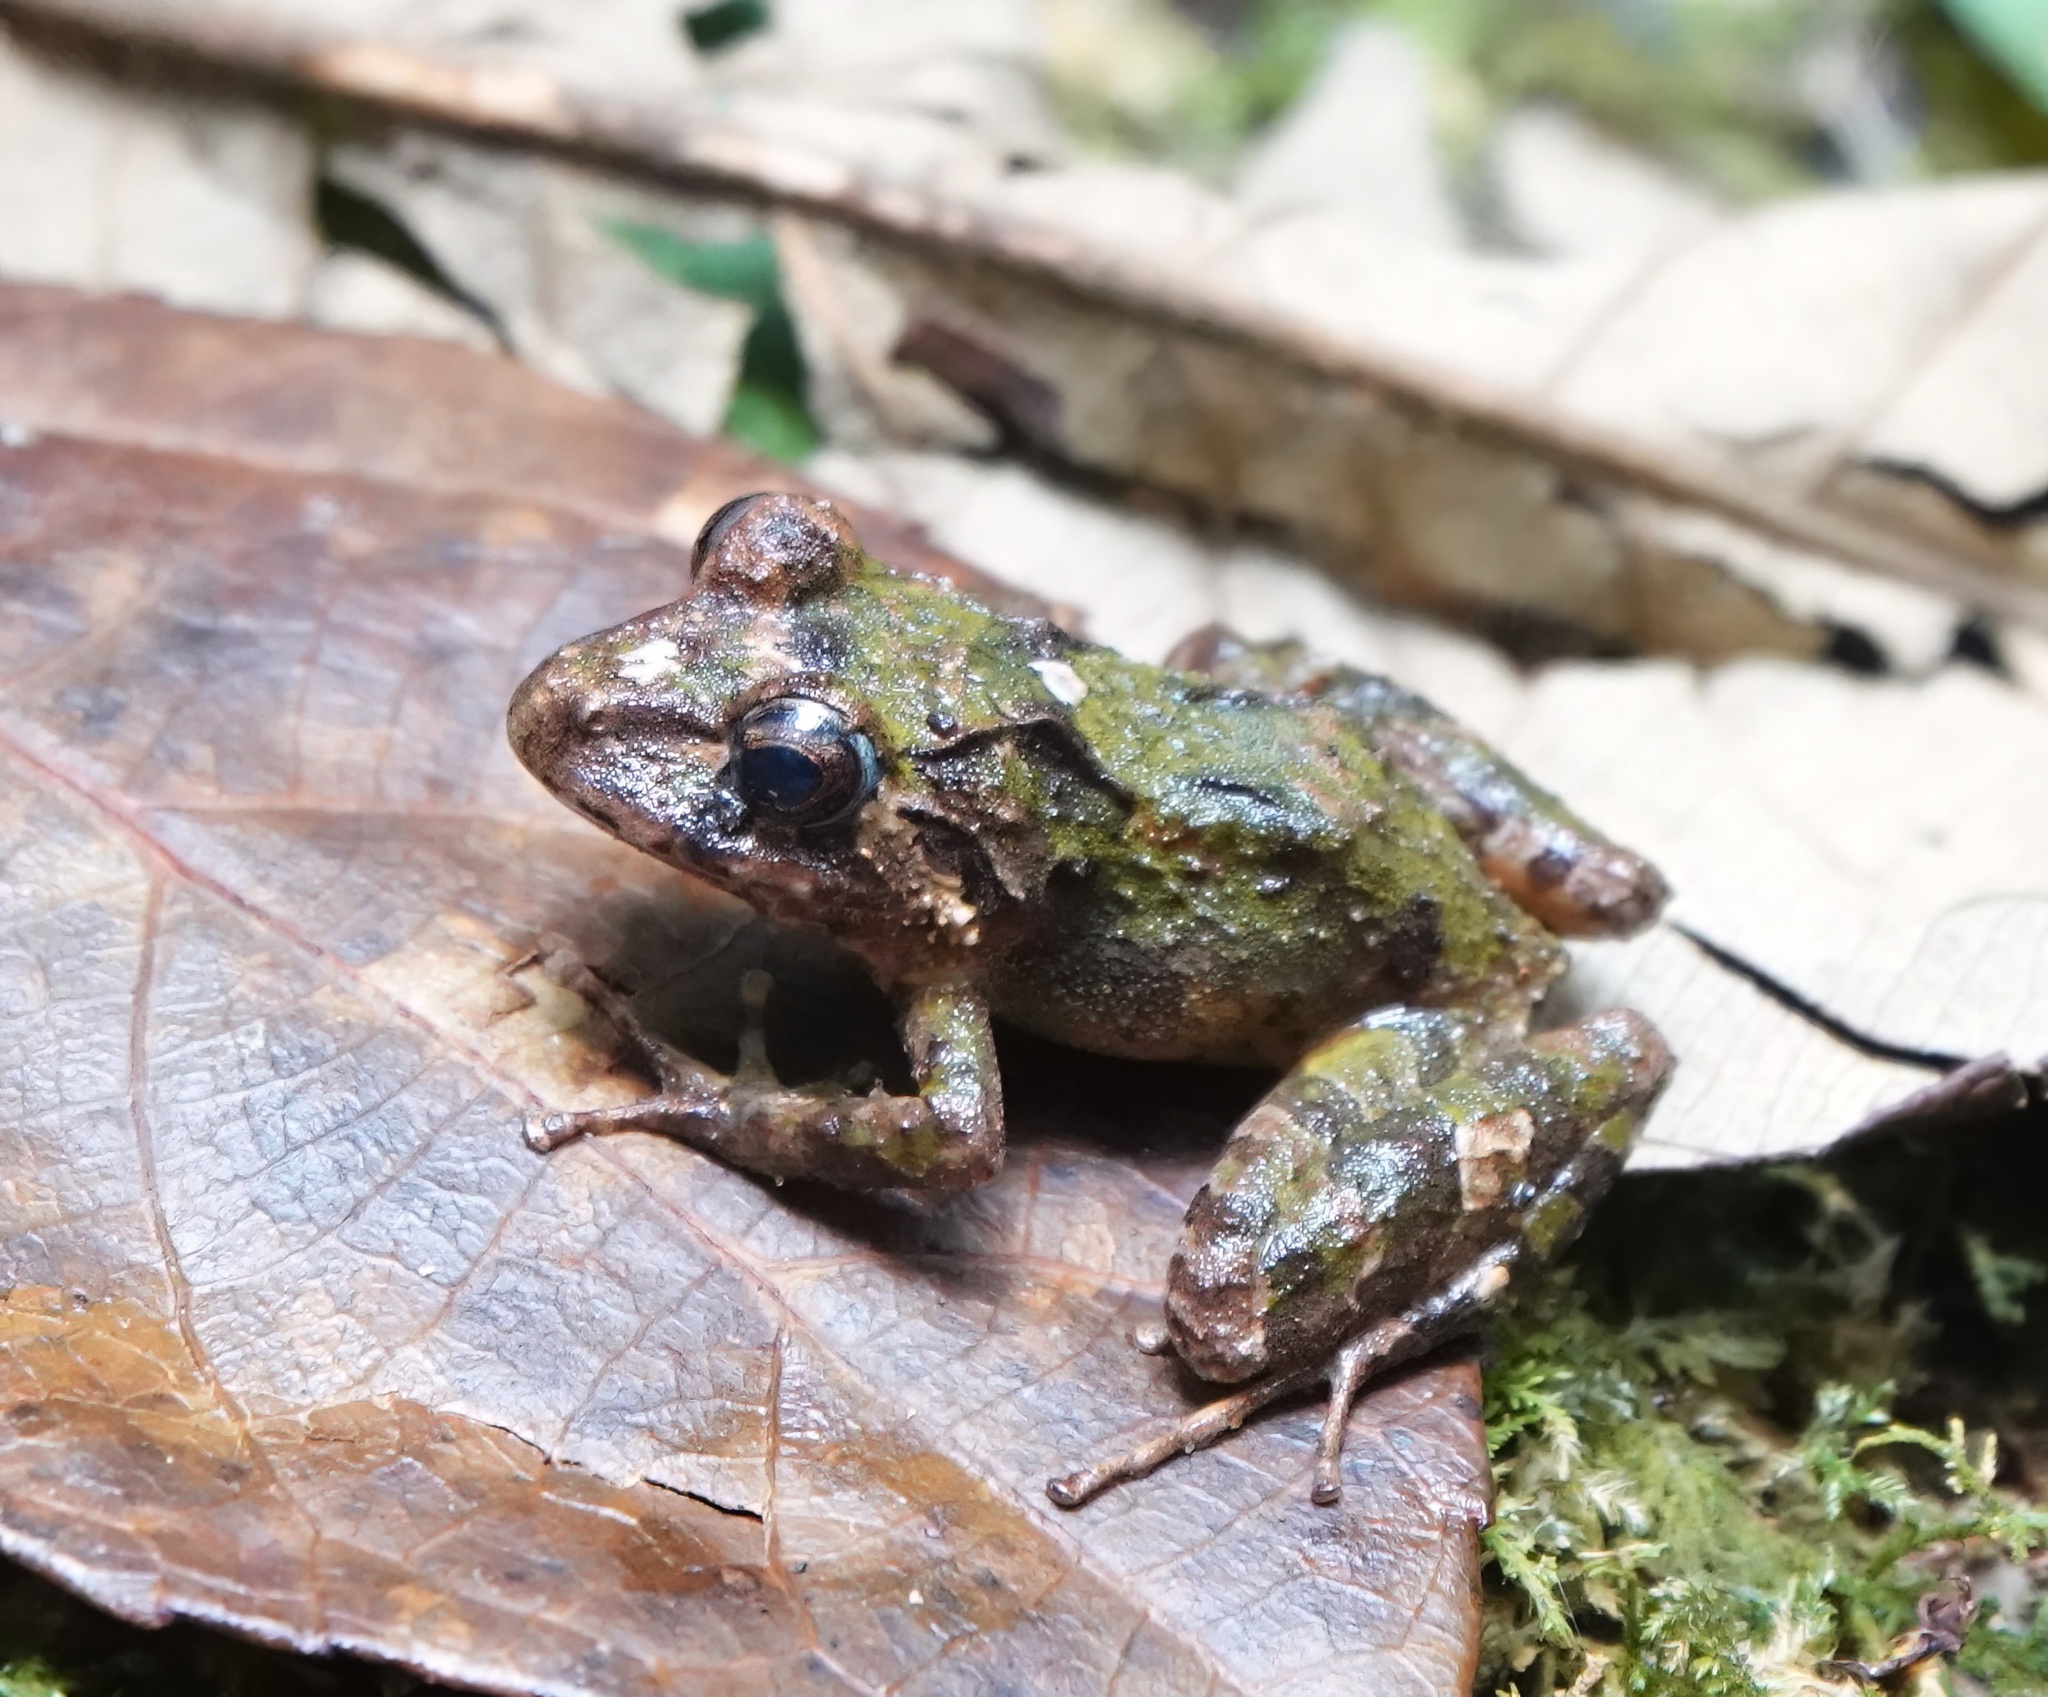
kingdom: Animalia
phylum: Chordata
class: Amphibia
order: Anura
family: Craugastoridae
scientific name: Craugastoridae
